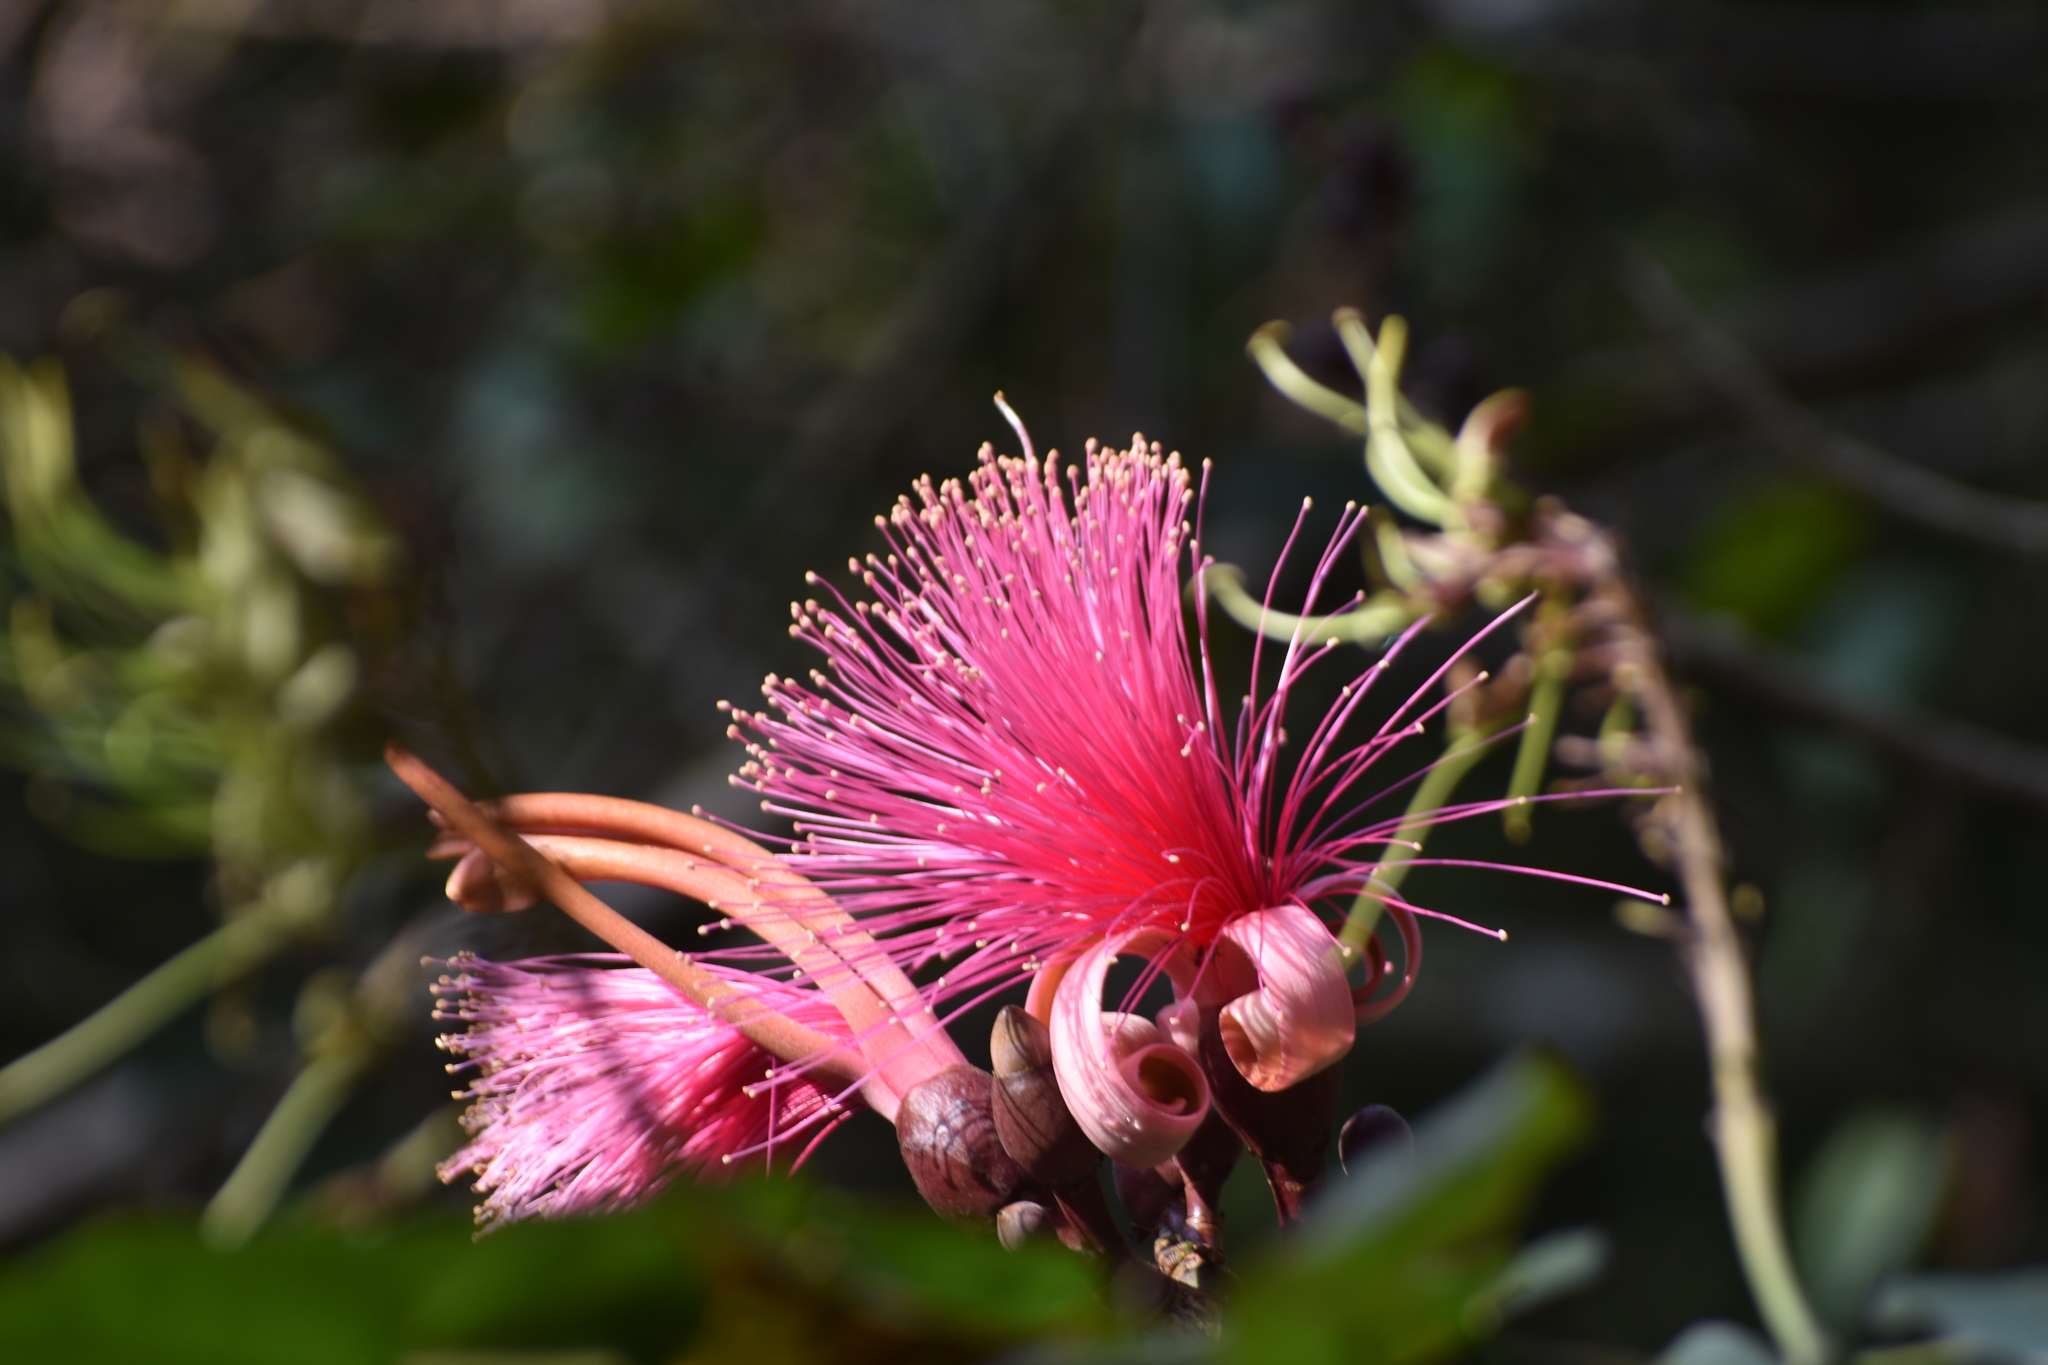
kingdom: Plantae
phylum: Tracheophyta
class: Magnoliopsida
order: Malvales
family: Malvaceae
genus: Pseudobombax
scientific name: Pseudobombax ellipticum
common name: Shaving-brush-tree
